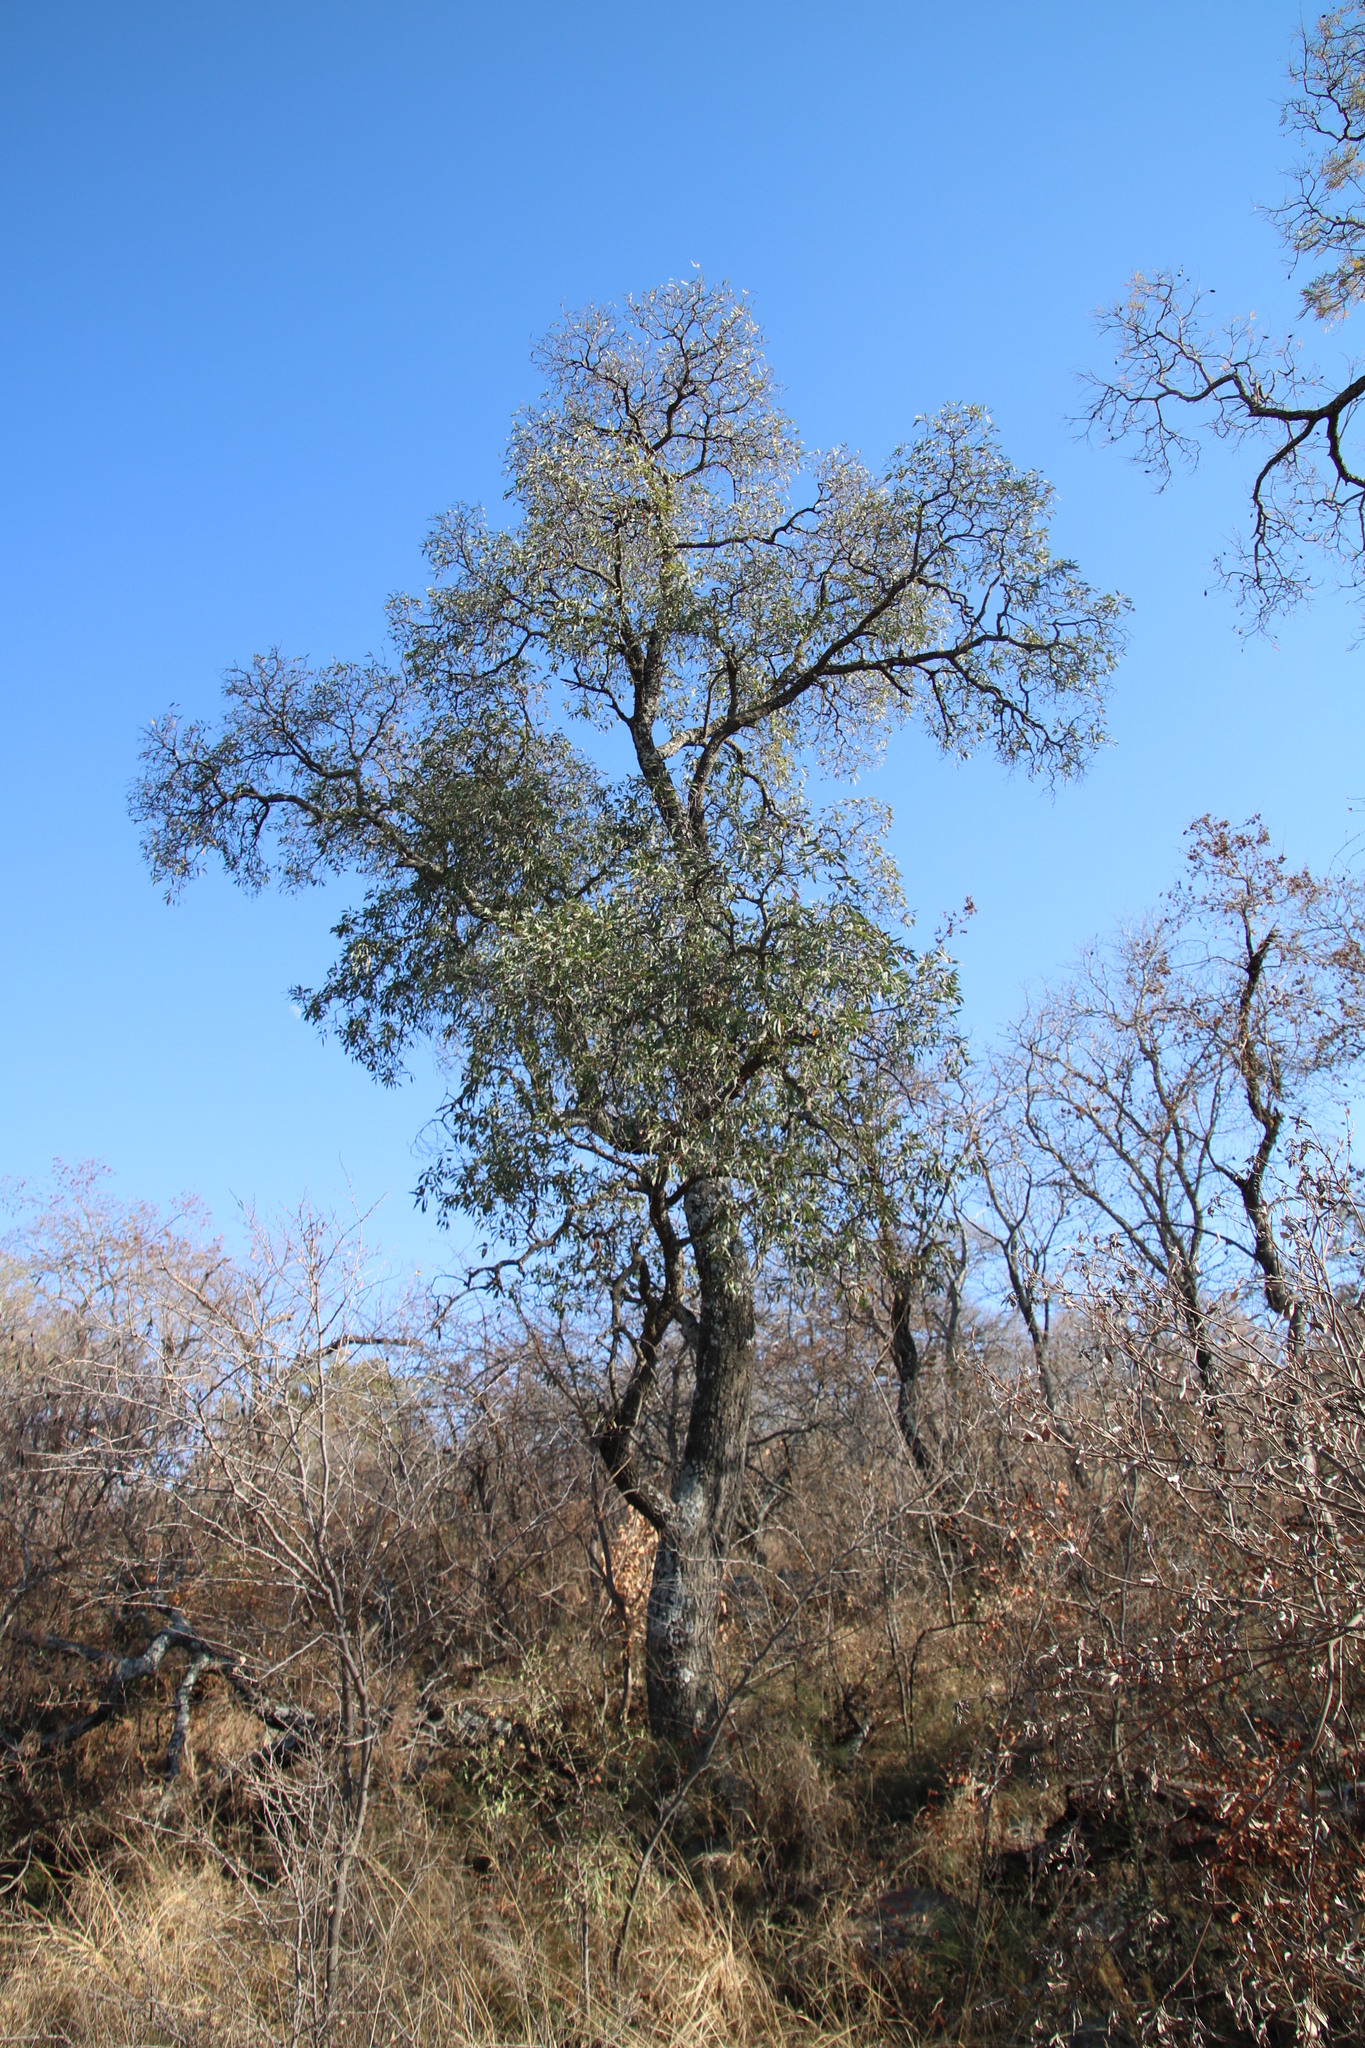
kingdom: Plantae
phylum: Tracheophyta
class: Magnoliopsida
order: Proteales
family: Proteaceae
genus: Faurea
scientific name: Faurea saligna
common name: African bean
